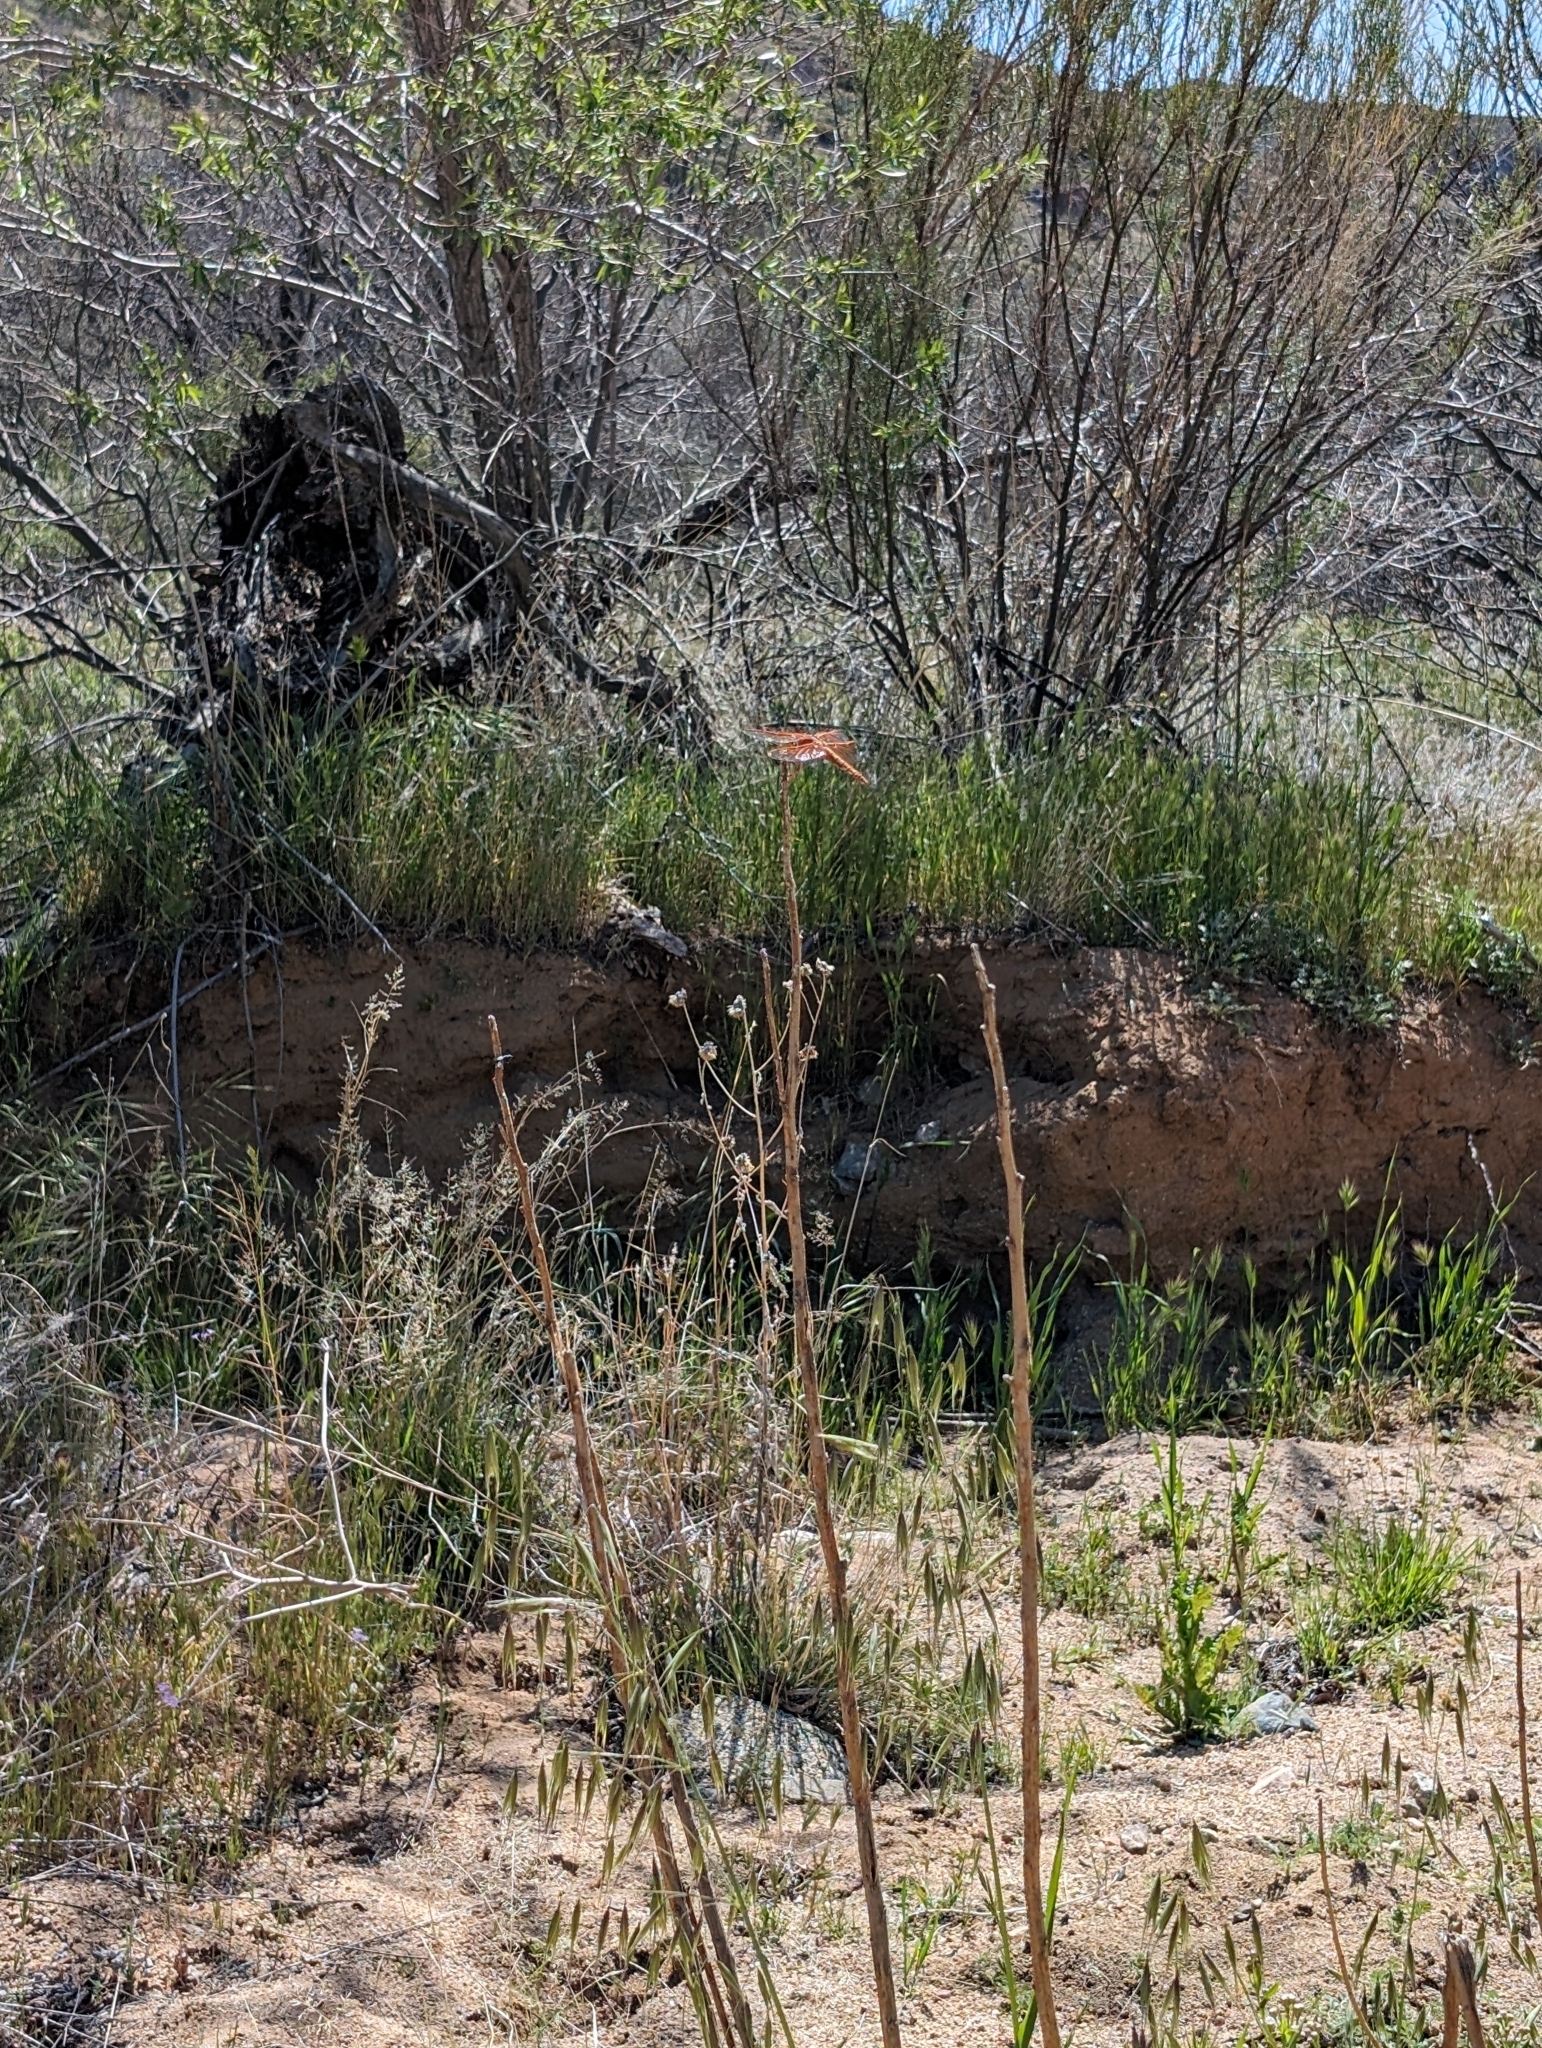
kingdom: Animalia
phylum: Arthropoda
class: Insecta
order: Odonata
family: Libellulidae
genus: Libellula
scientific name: Libellula saturata
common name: Flame skimmer
